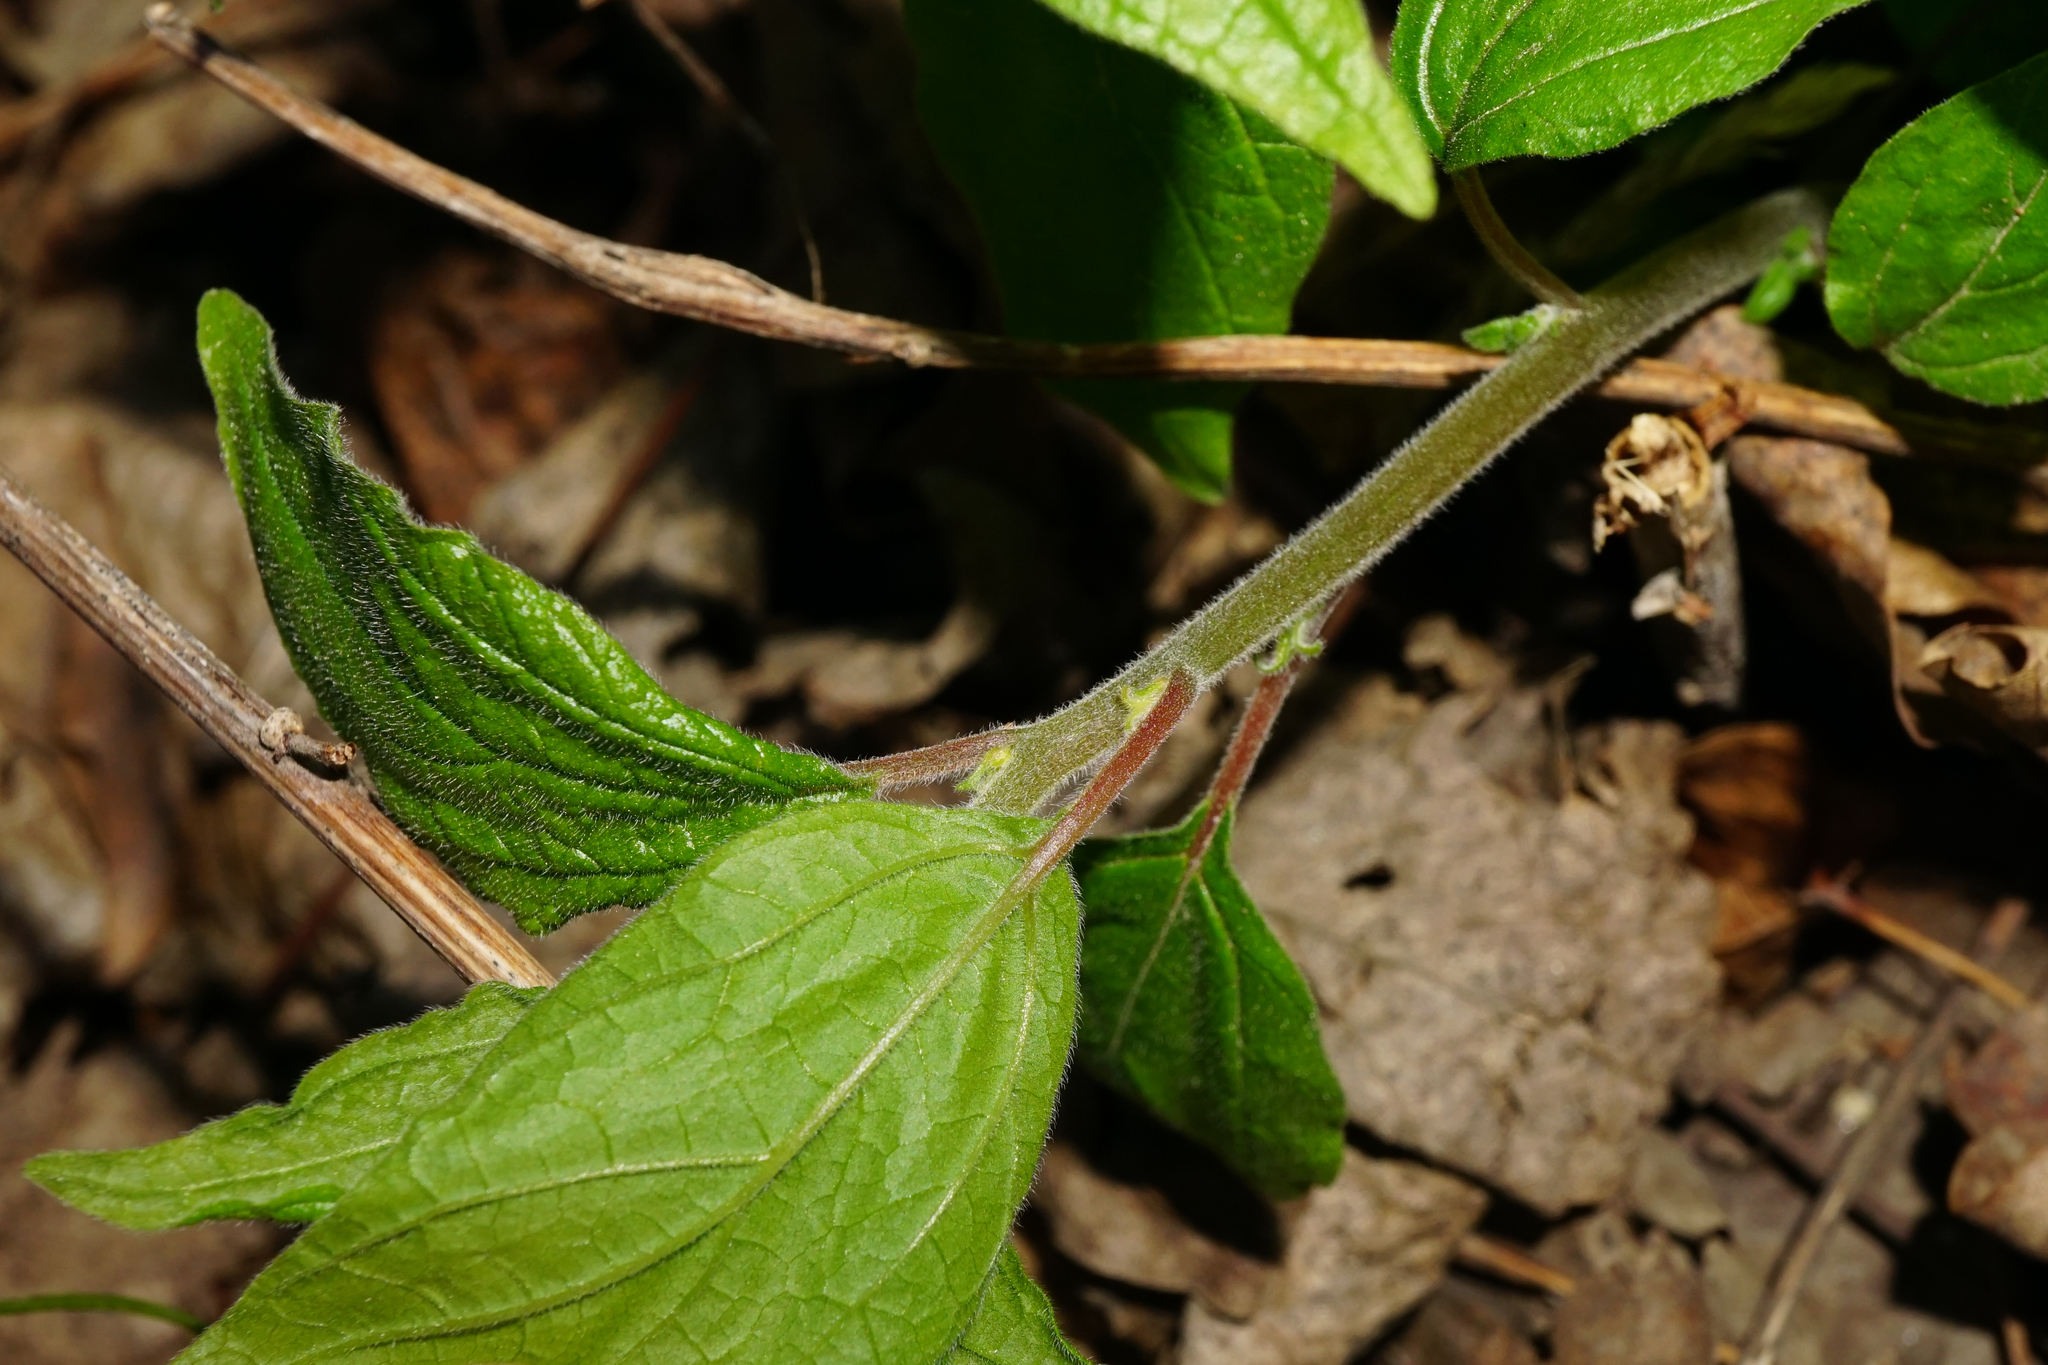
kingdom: Plantae
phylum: Tracheophyta
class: Magnoliopsida
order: Rosales
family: Urticaceae
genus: Parietaria
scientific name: Parietaria officinalis
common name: Eastern pellitory-of-the-wall
